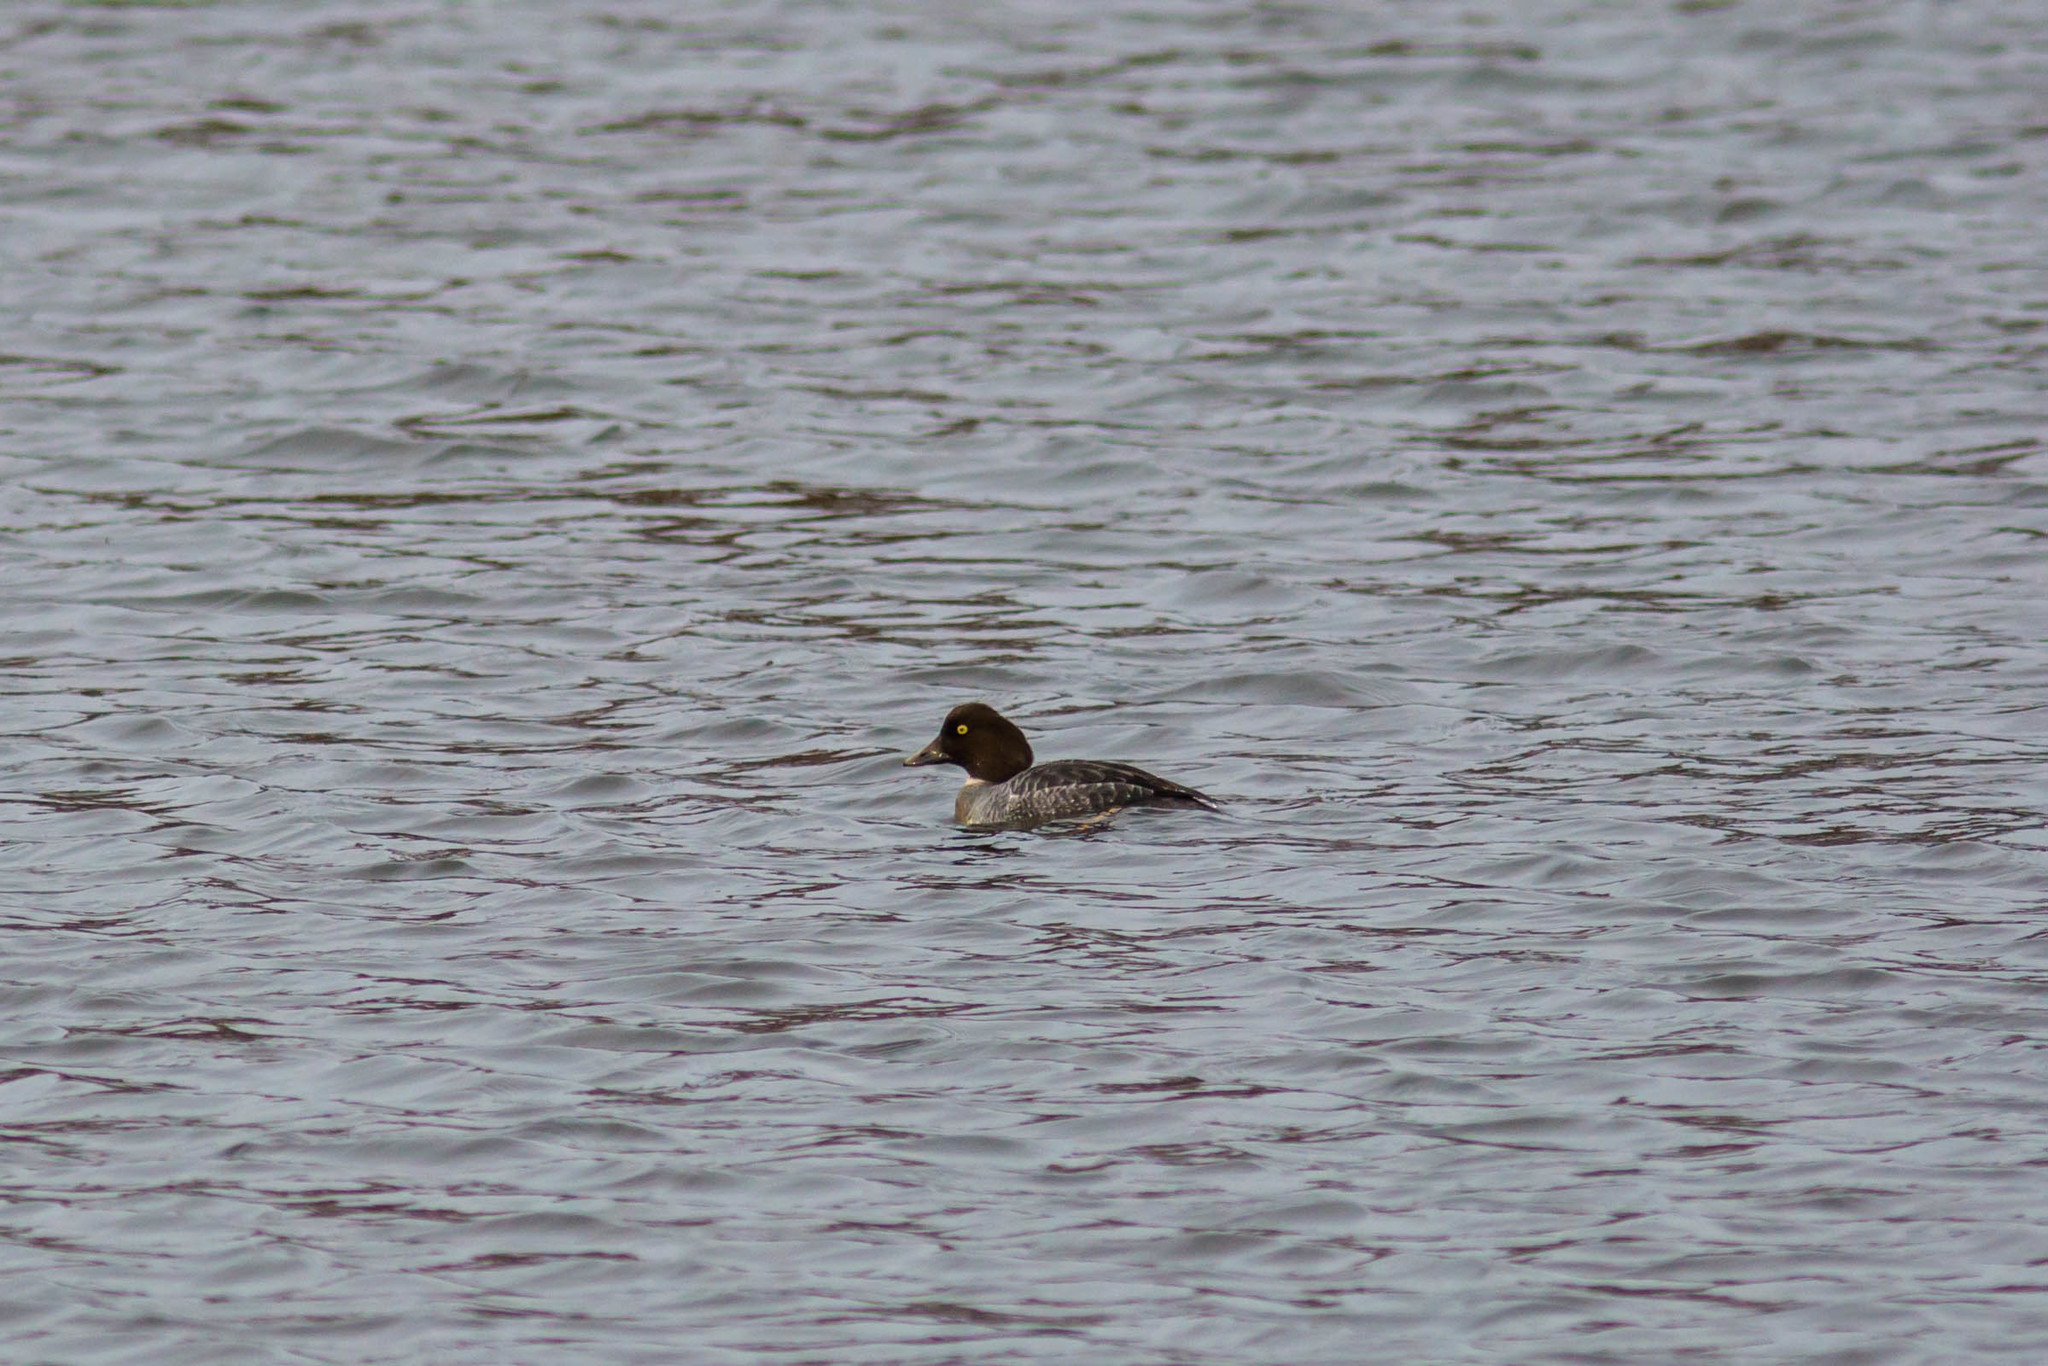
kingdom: Animalia
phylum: Chordata
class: Aves
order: Anseriformes
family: Anatidae
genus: Bucephala
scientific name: Bucephala clangula
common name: Common goldeneye
